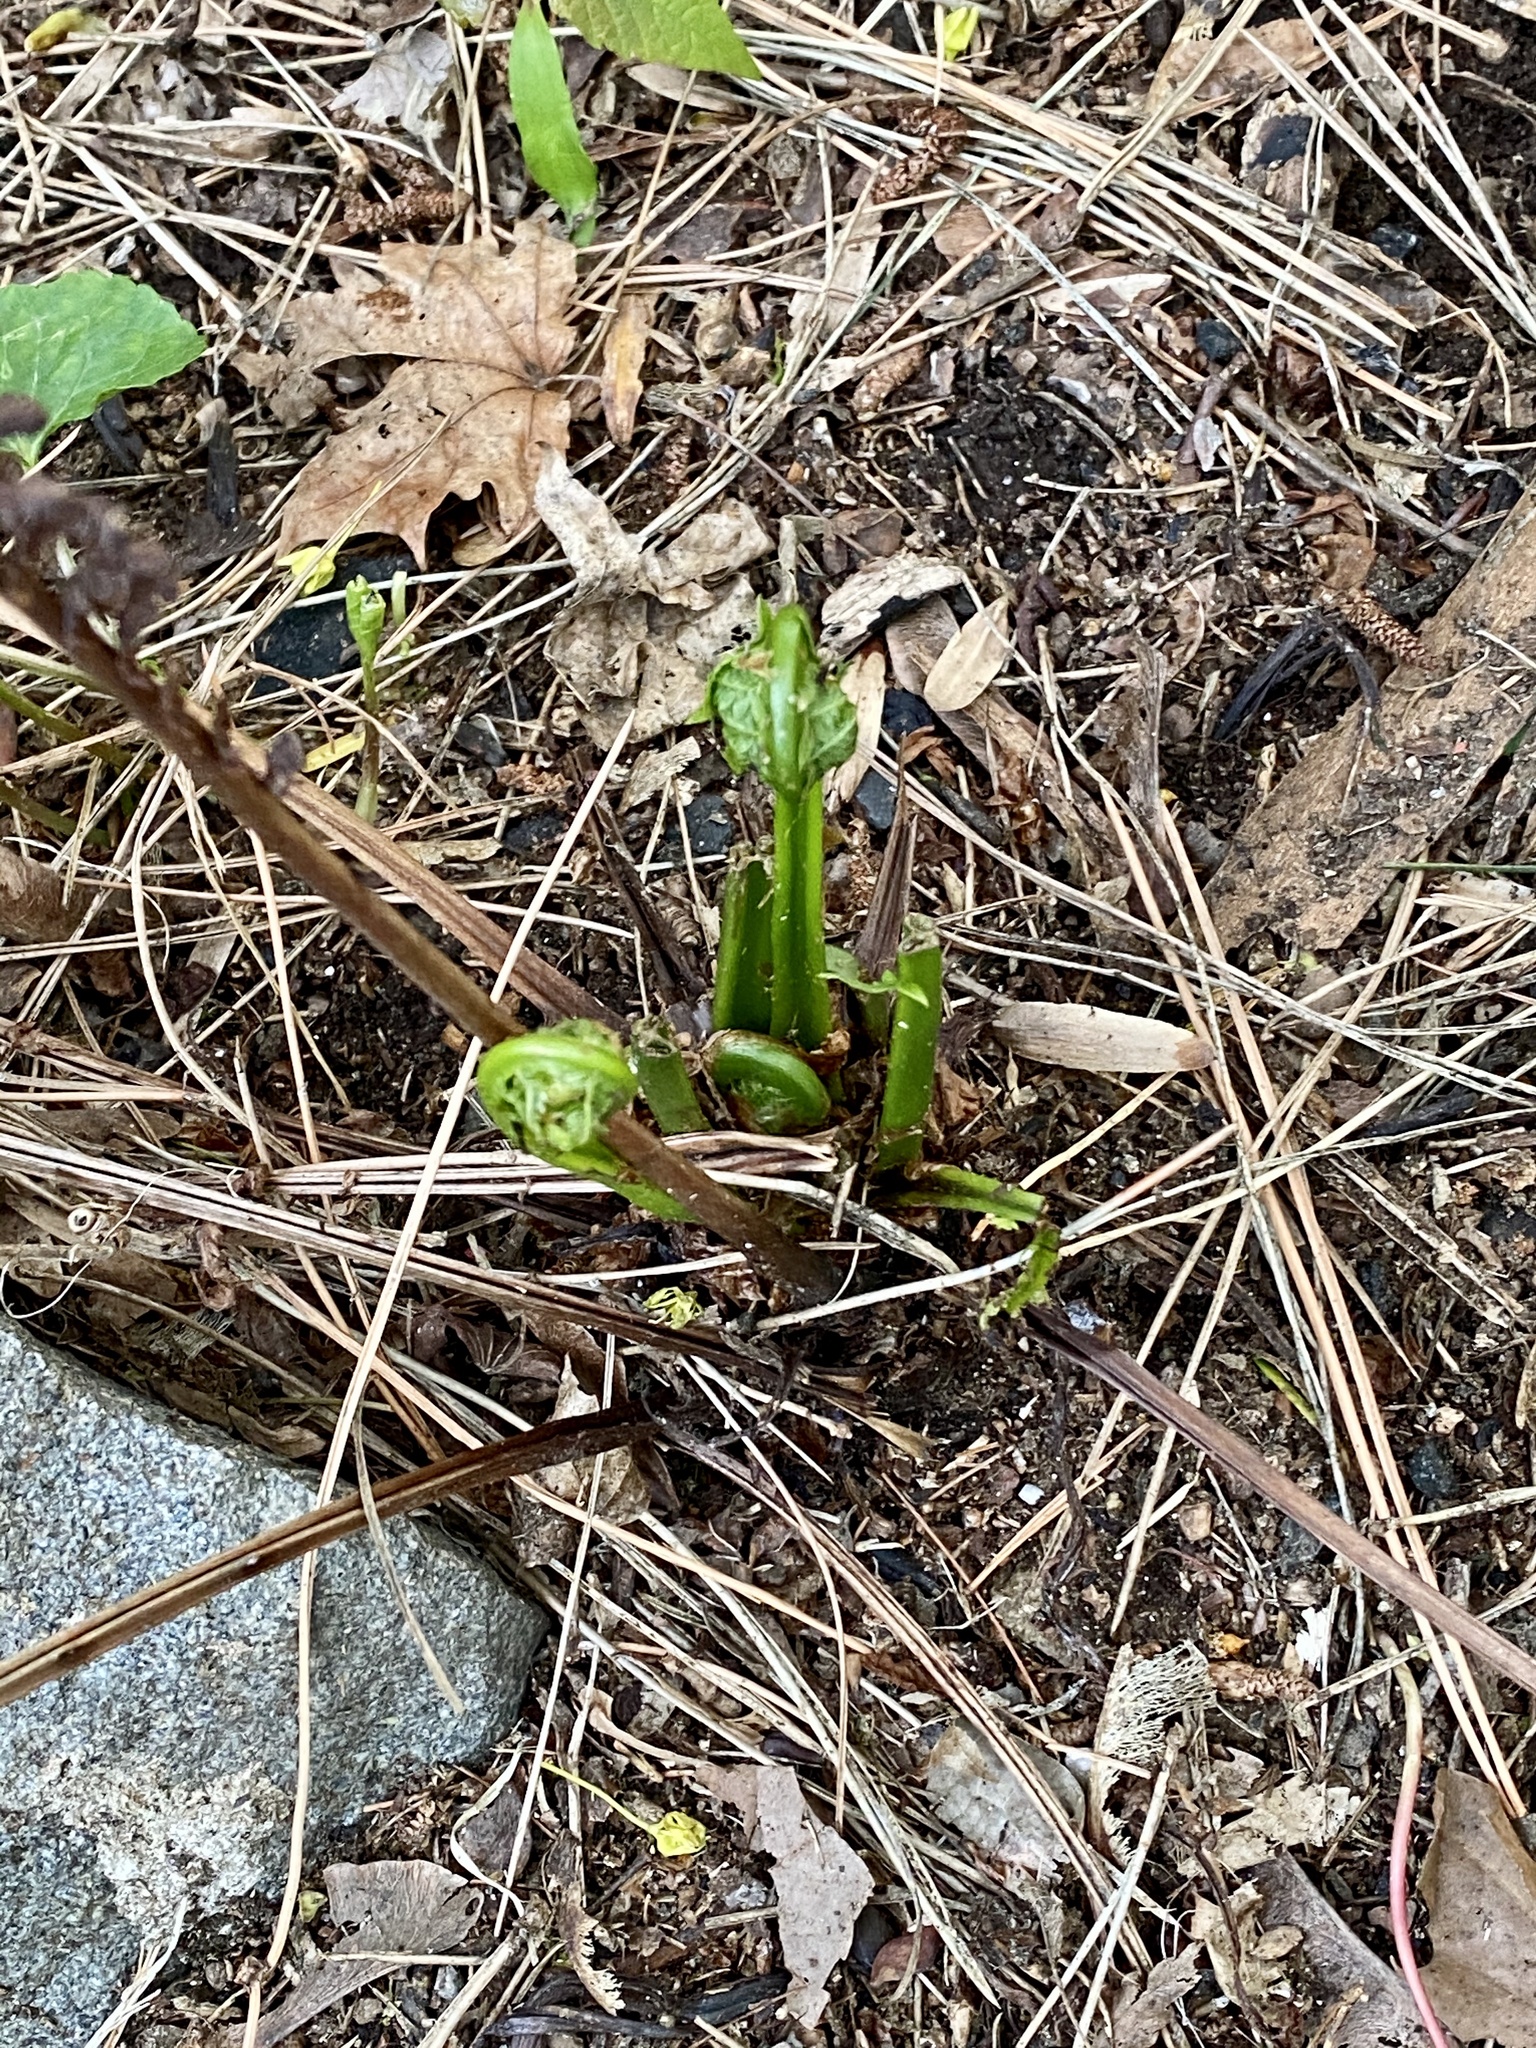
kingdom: Plantae
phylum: Tracheophyta
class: Polypodiopsida
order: Polypodiales
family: Onocleaceae
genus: Matteuccia
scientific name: Matteuccia struthiopteris
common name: Ostrich fern
